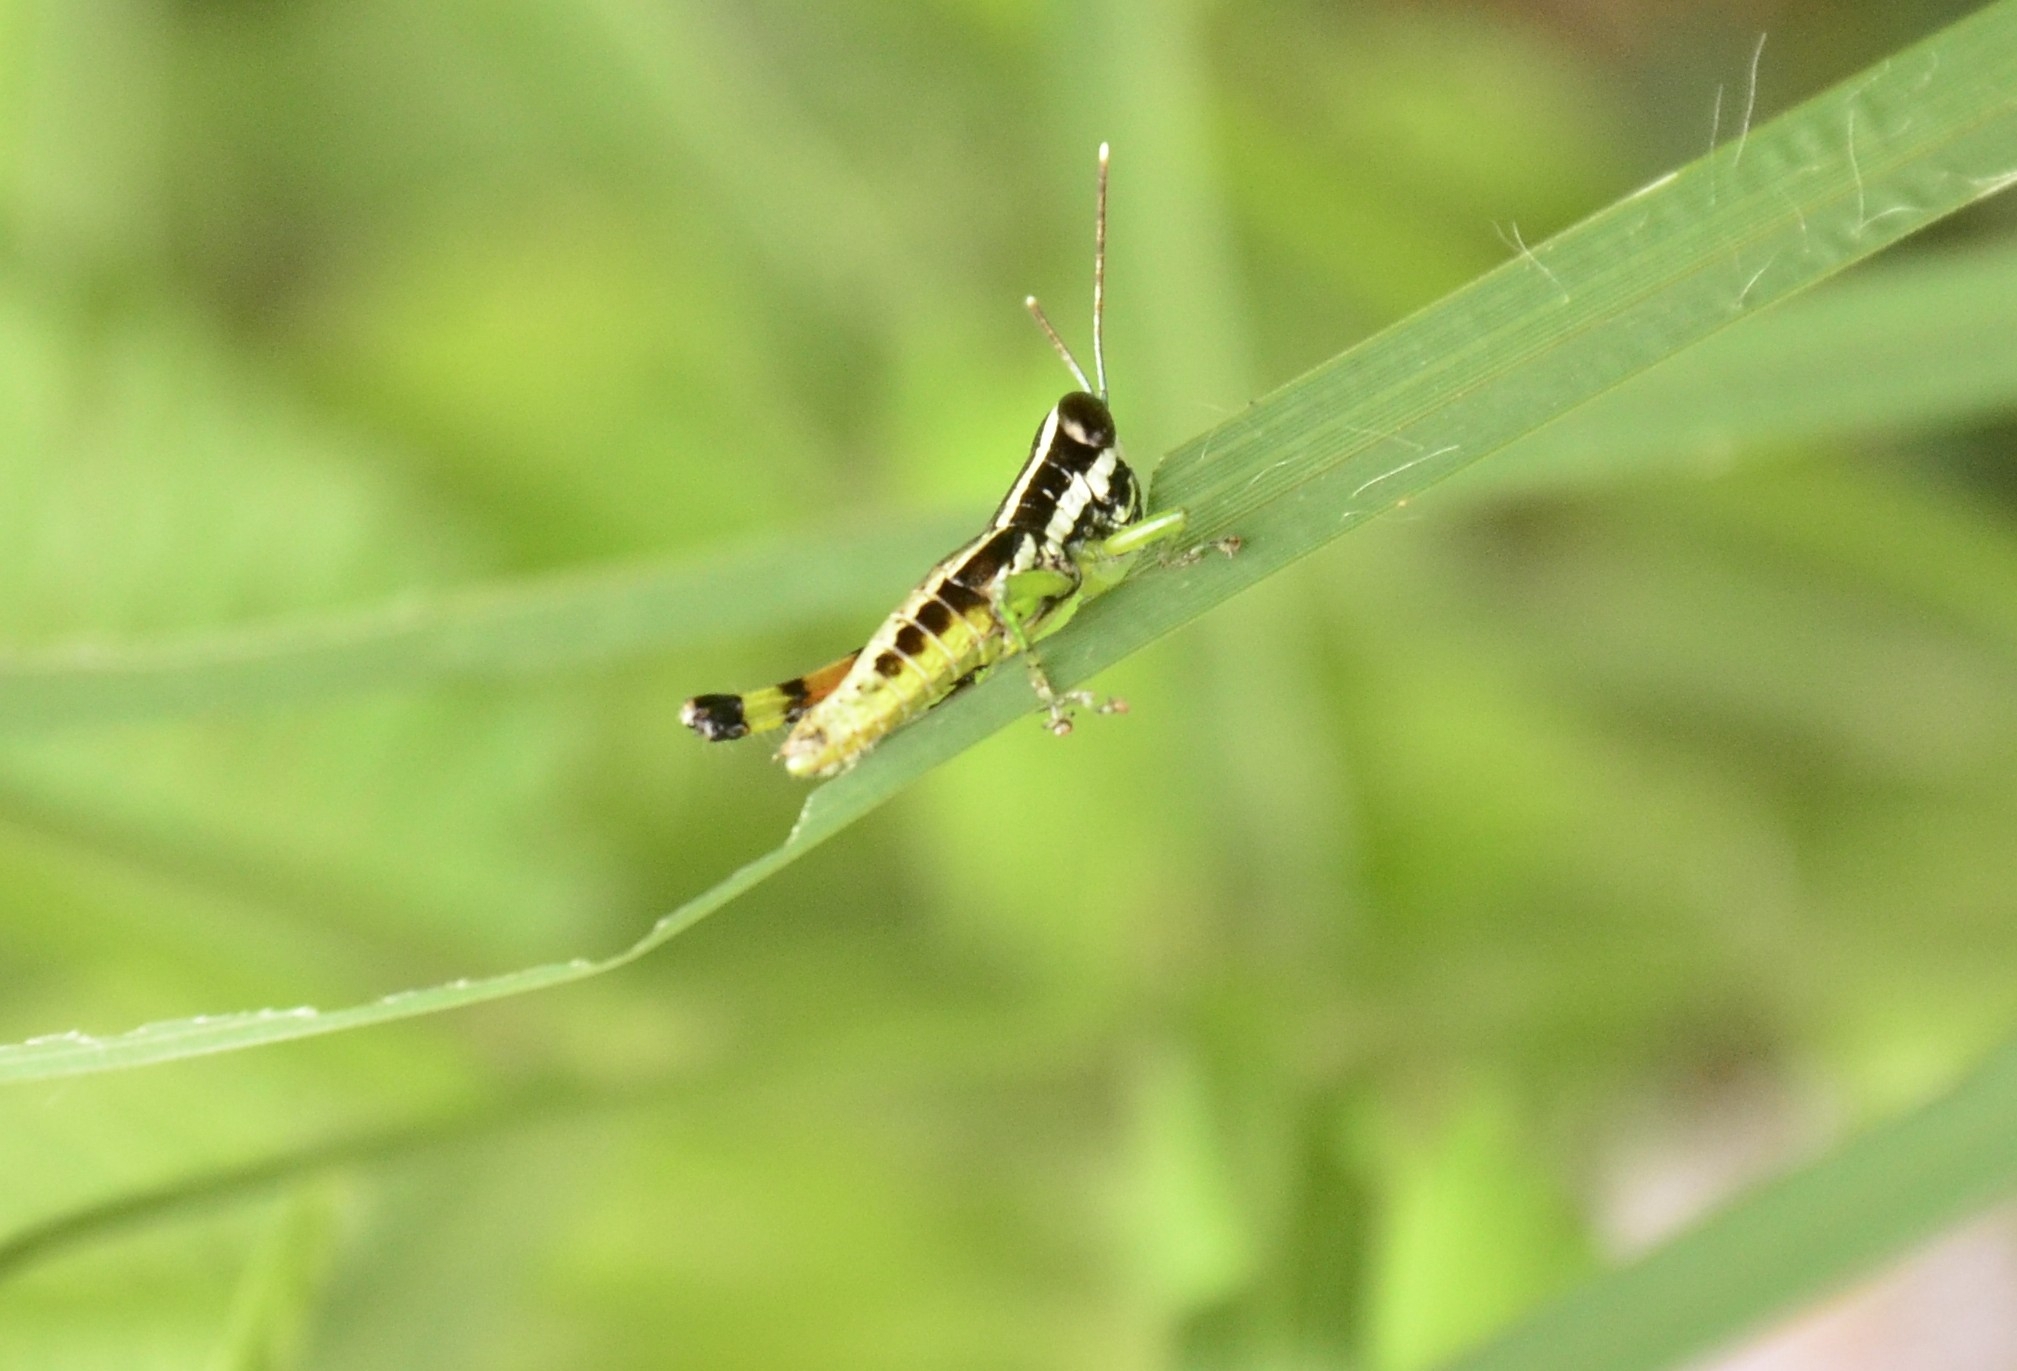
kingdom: Animalia
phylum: Arthropoda
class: Insecta
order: Orthoptera
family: Acrididae
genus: Chitaura
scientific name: Chitaura indica
